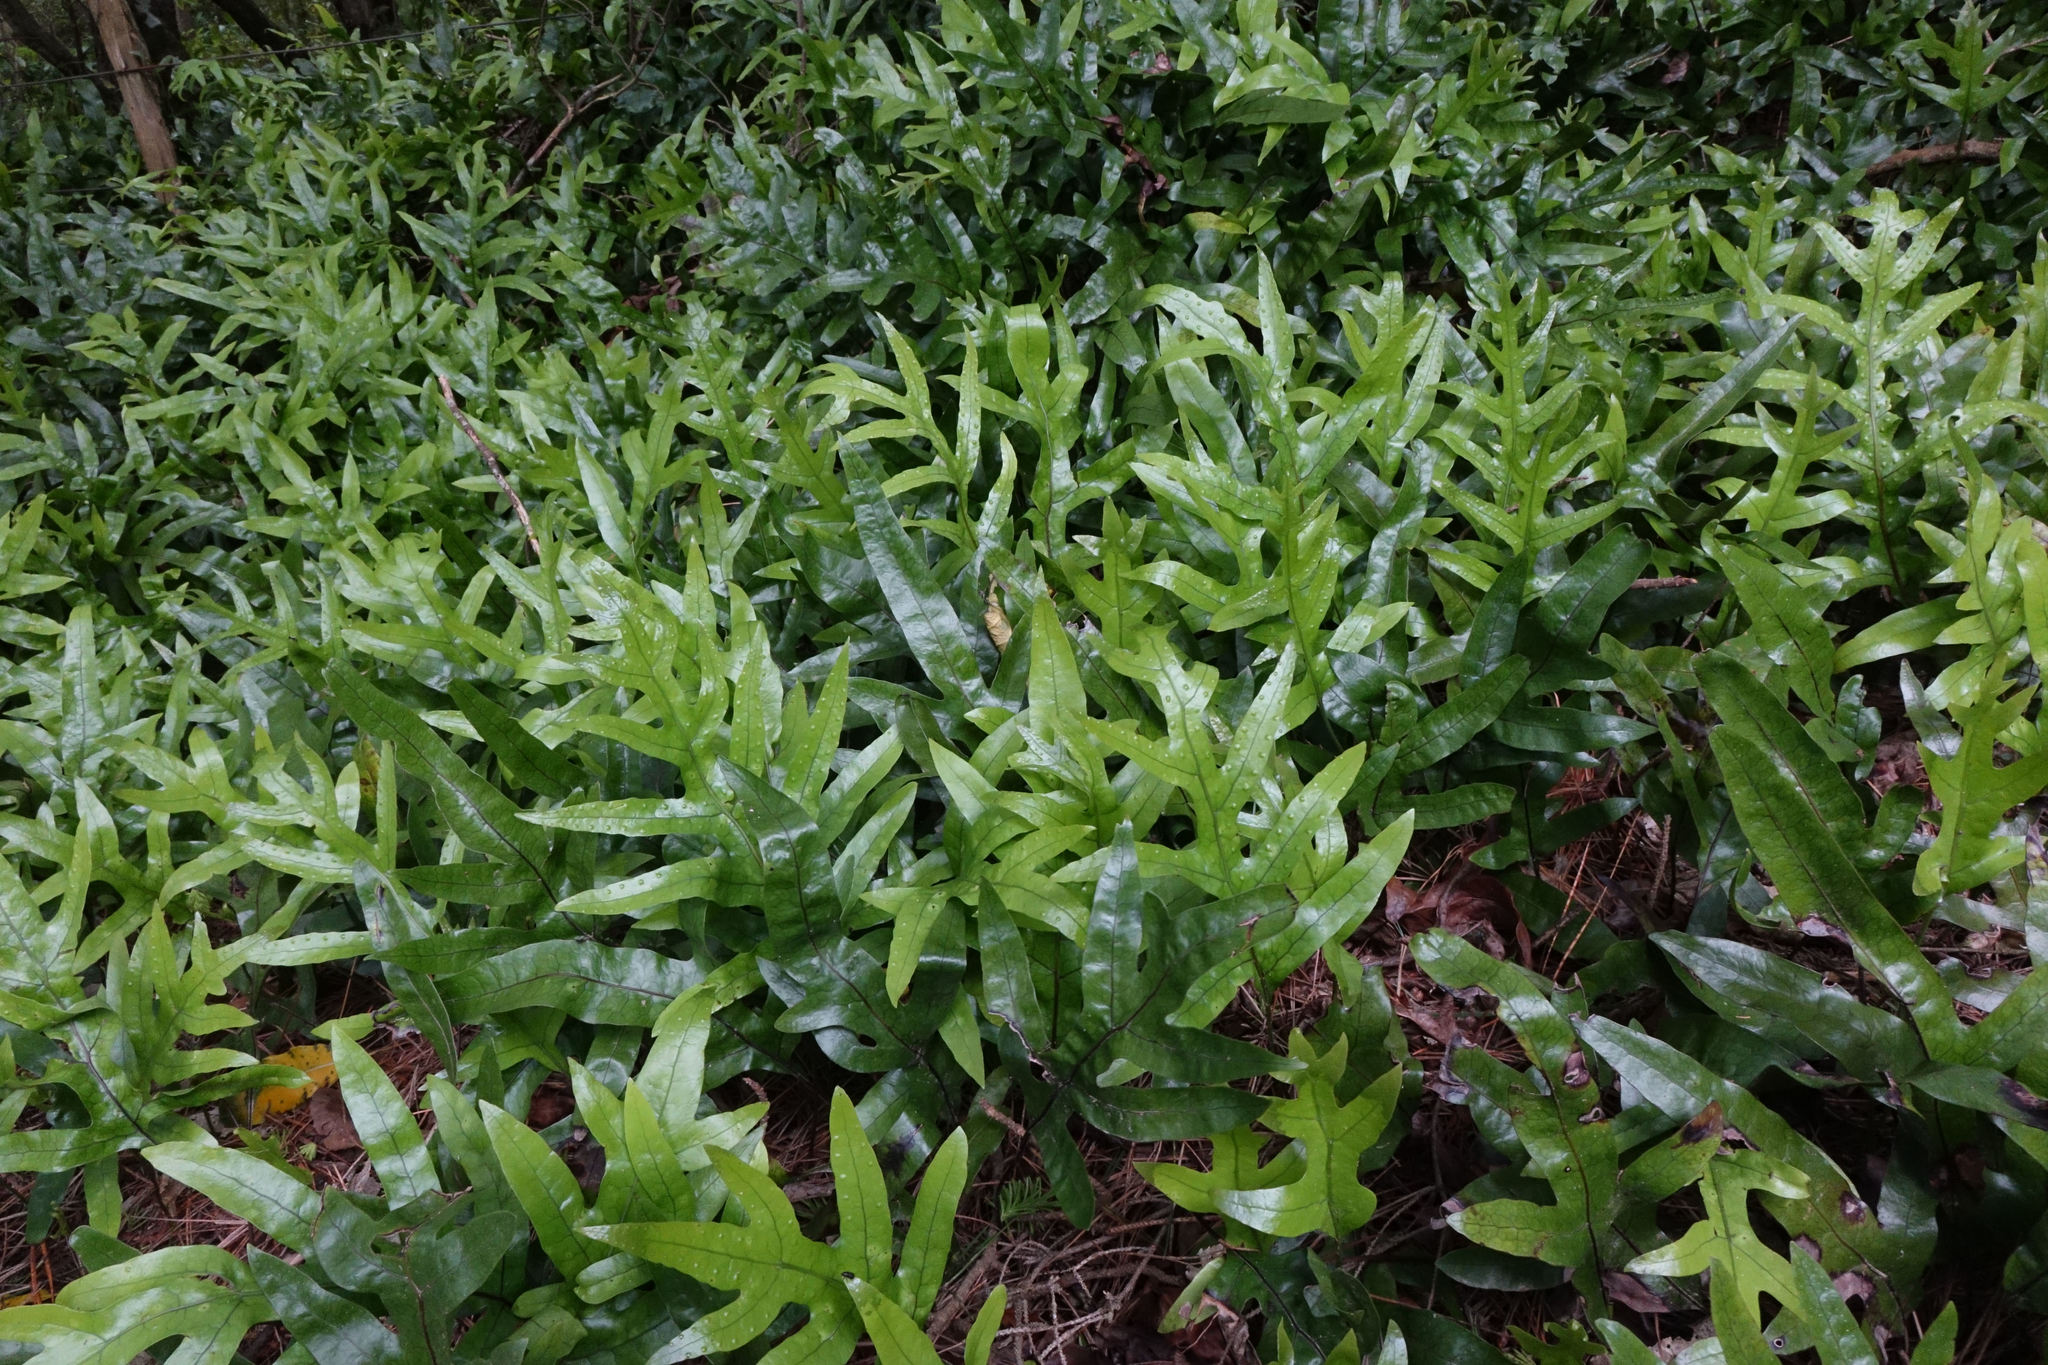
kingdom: Plantae
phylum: Tracheophyta
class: Polypodiopsida
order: Polypodiales
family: Polypodiaceae
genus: Lecanopteris
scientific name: Lecanopteris pustulata
